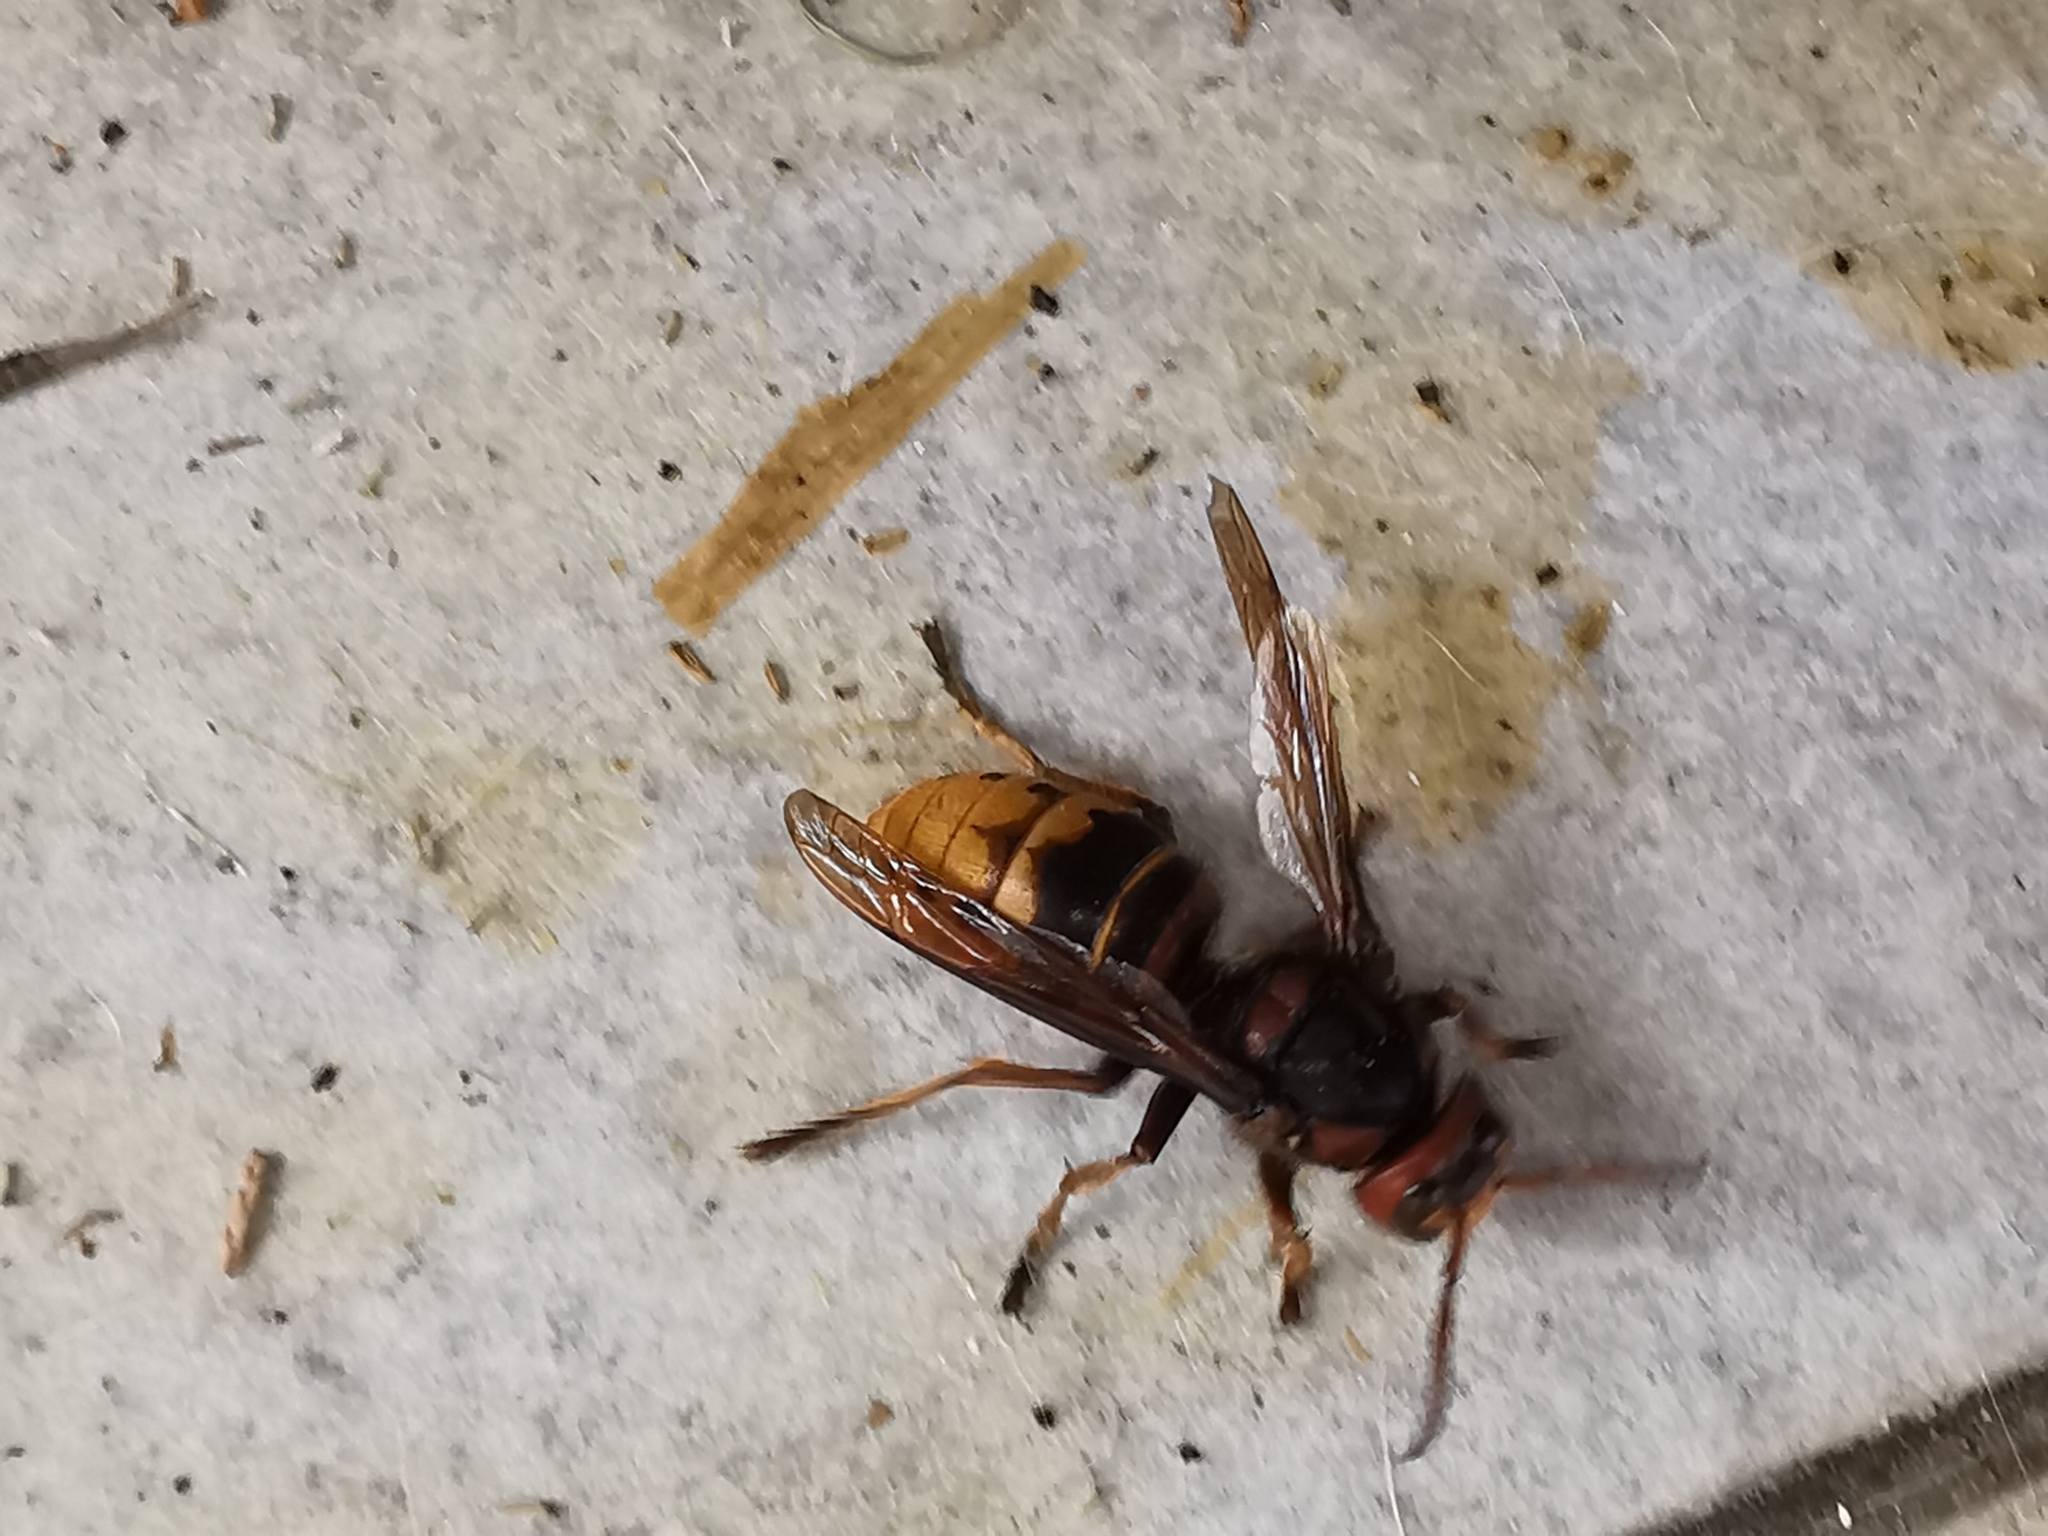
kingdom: Animalia
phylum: Arthropoda
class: Insecta
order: Hymenoptera
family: Vespidae
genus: Vespa
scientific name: Vespa crabro
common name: Hornet
